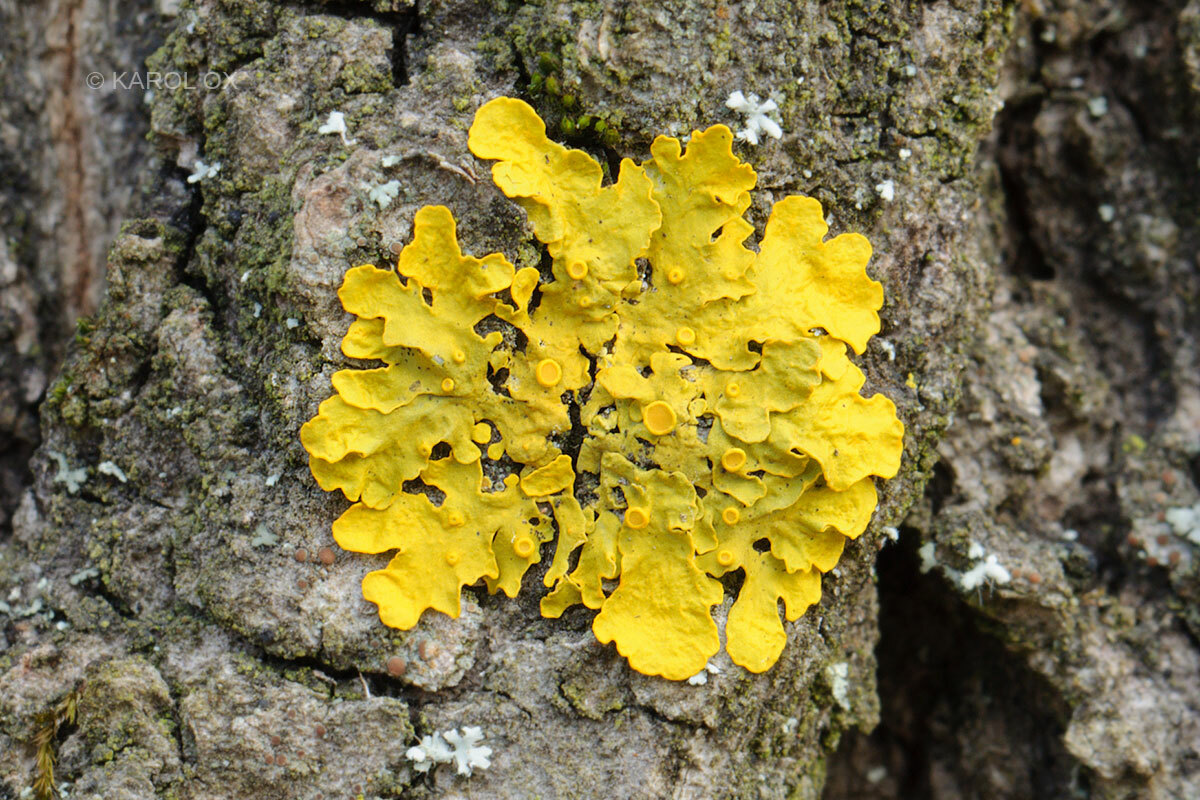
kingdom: Fungi
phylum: Ascomycota
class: Lecanoromycetes
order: Teloschistales
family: Teloschistaceae
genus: Xanthoria
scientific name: Xanthoria parietina
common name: Common orange lichen
